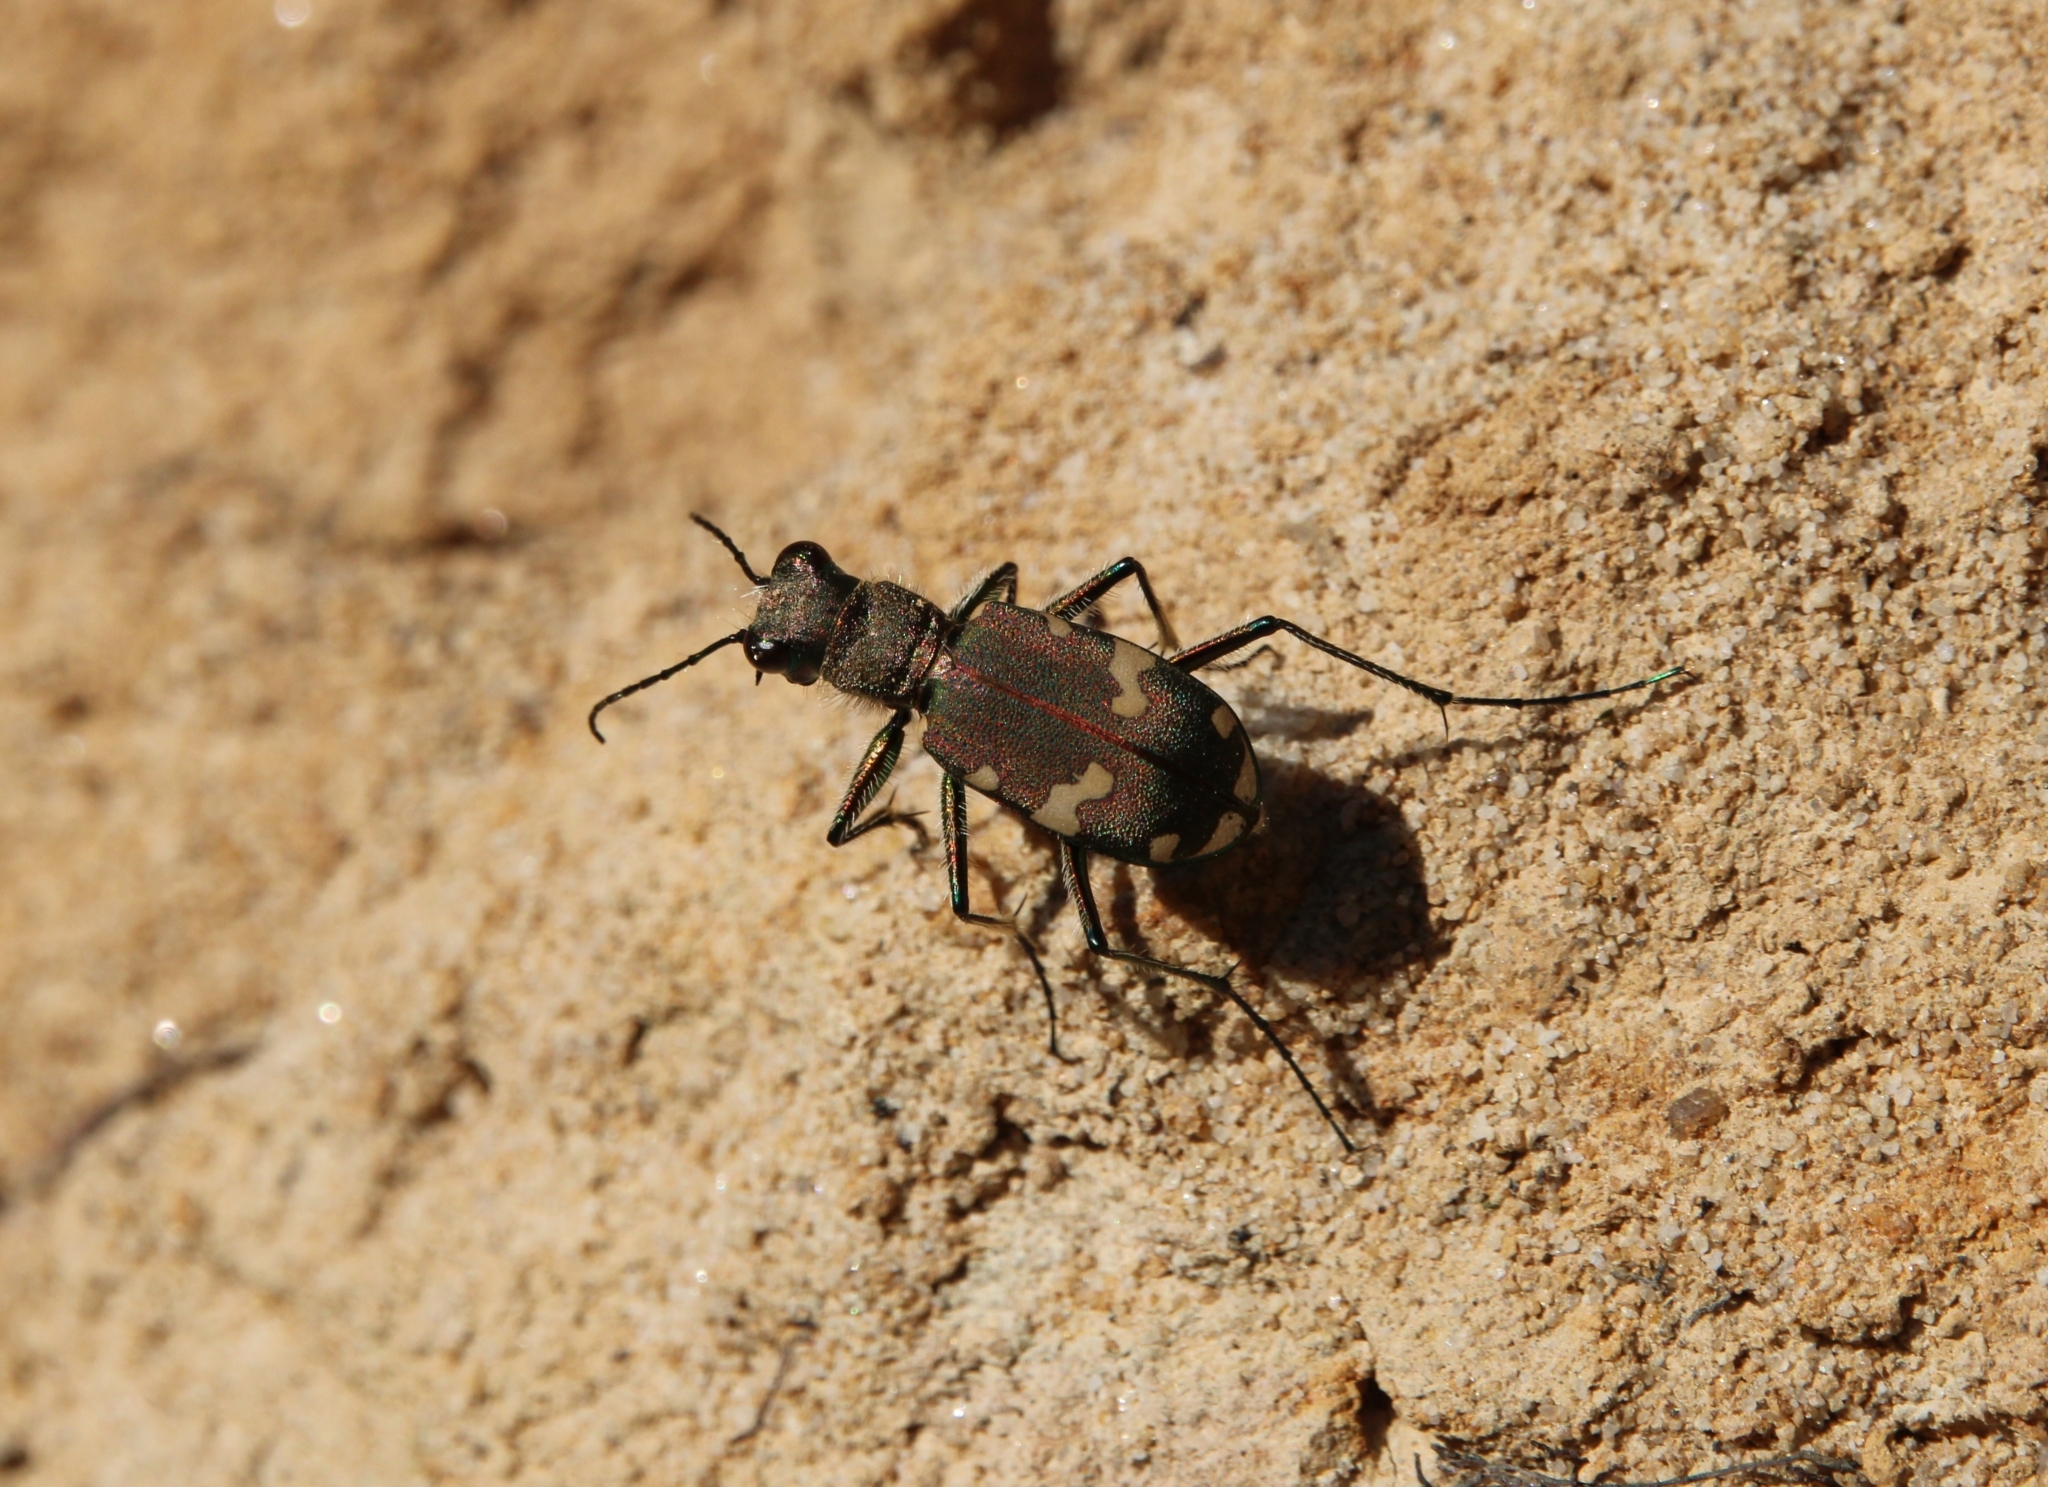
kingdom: Animalia
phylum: Arthropoda
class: Insecta
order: Coleoptera
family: Carabidae
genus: Cicindela
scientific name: Cicindela sylvicola
